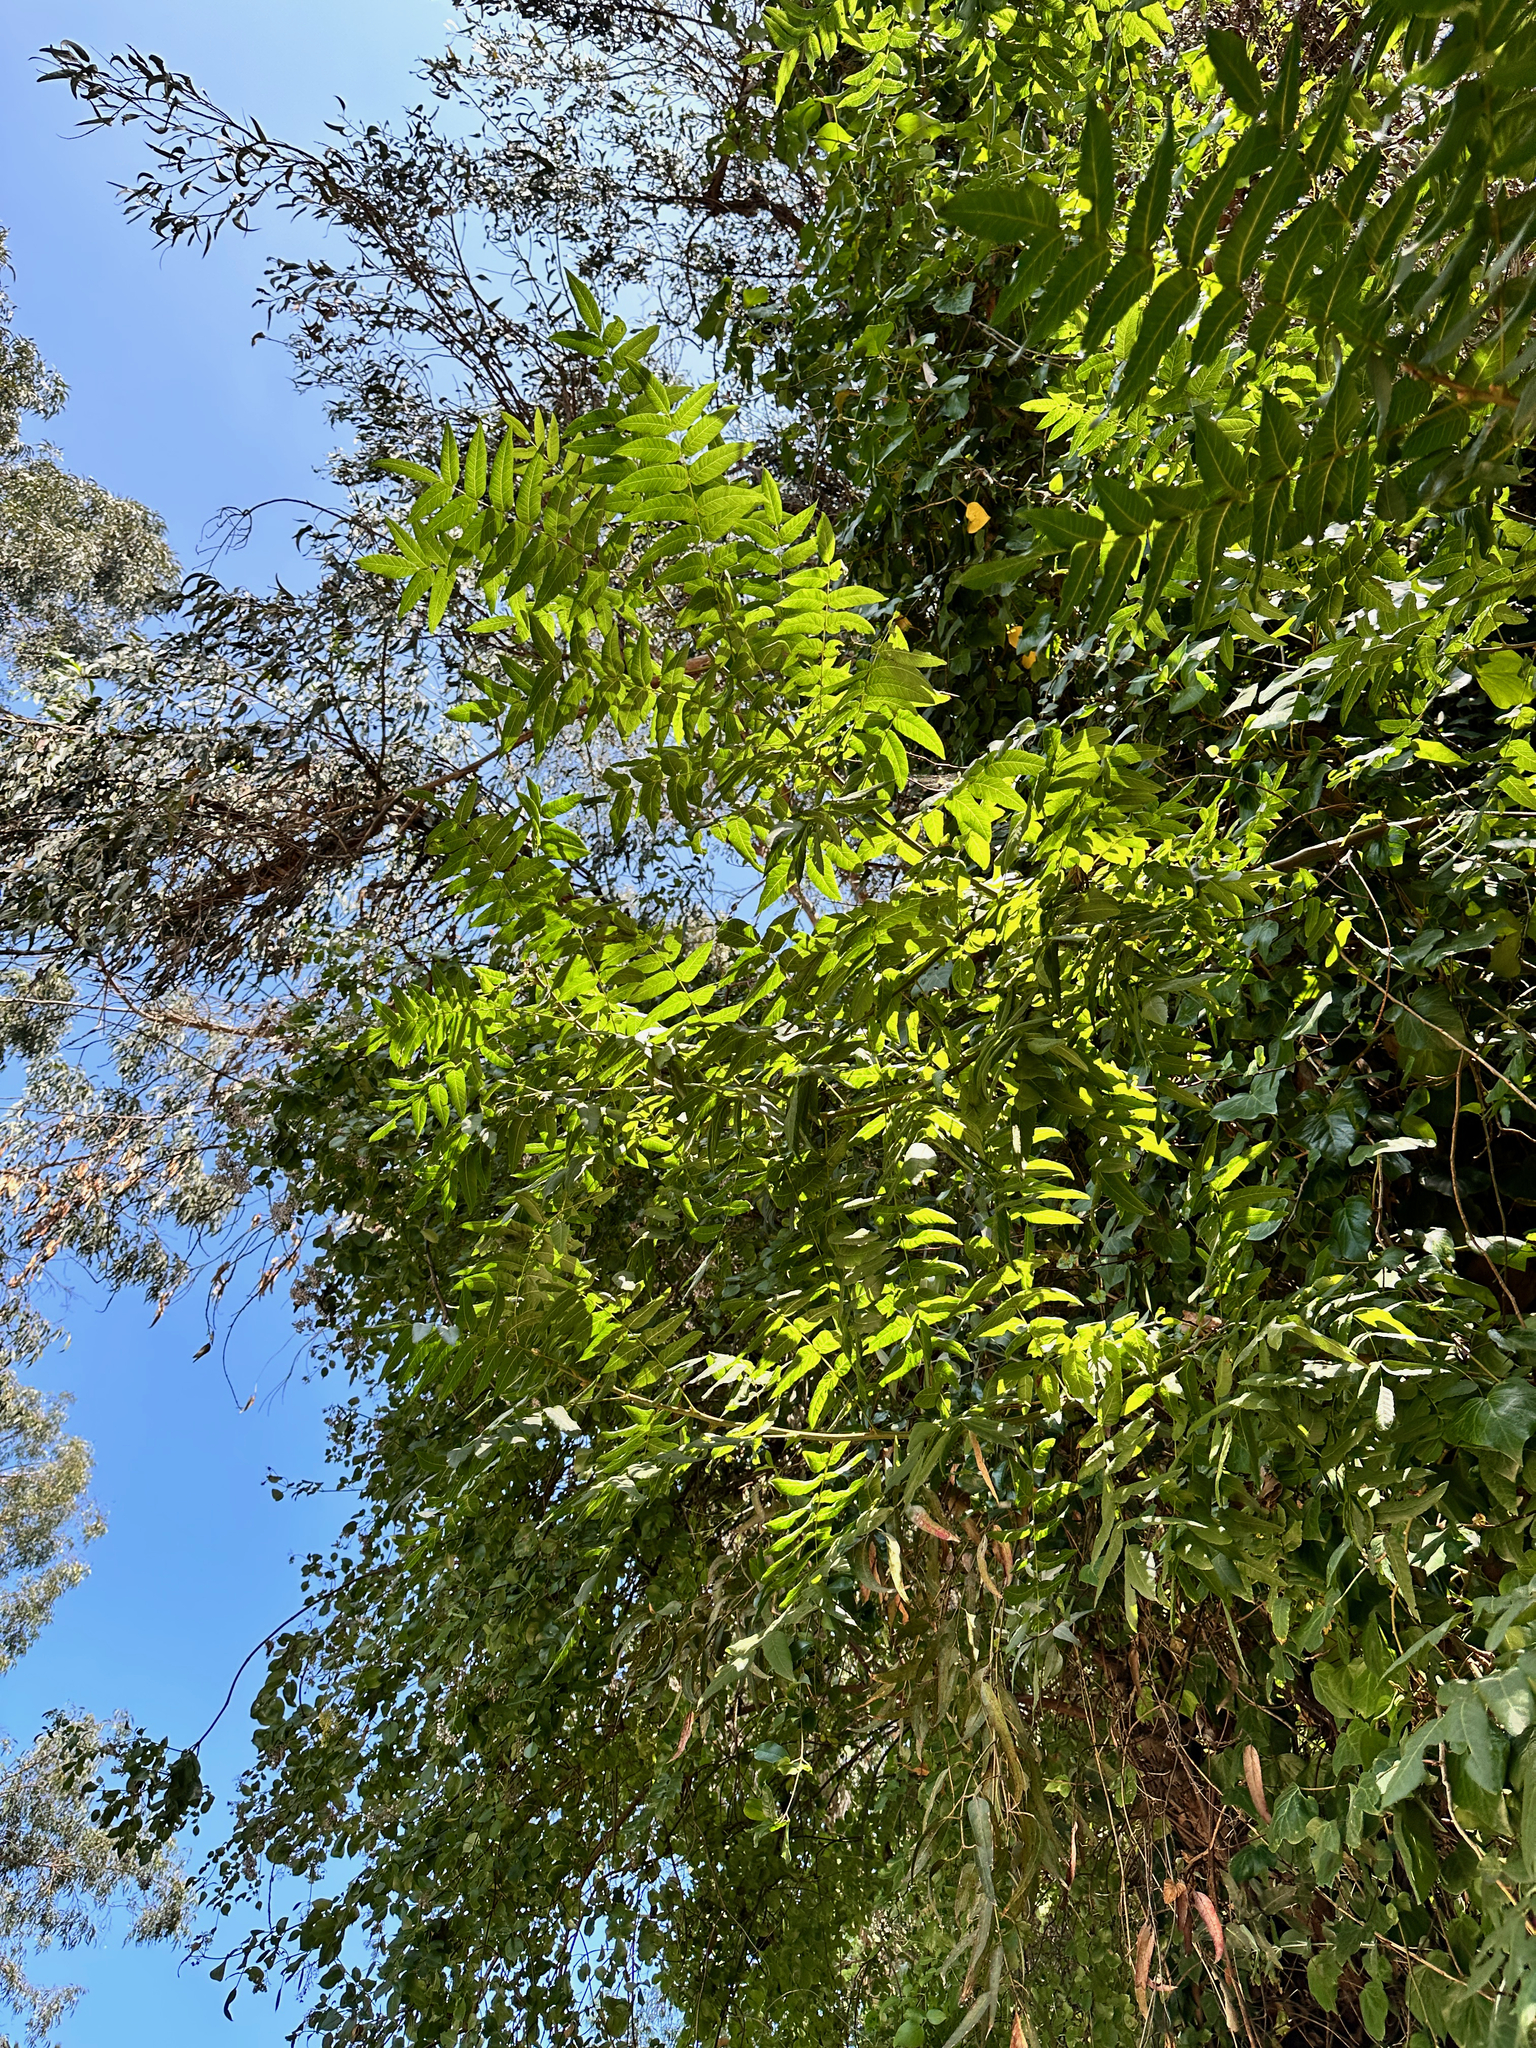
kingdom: Plantae
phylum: Tracheophyta
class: Magnoliopsida
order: Fagales
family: Juglandaceae
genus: Juglans
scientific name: Juglans californica
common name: Southern california black walnut
